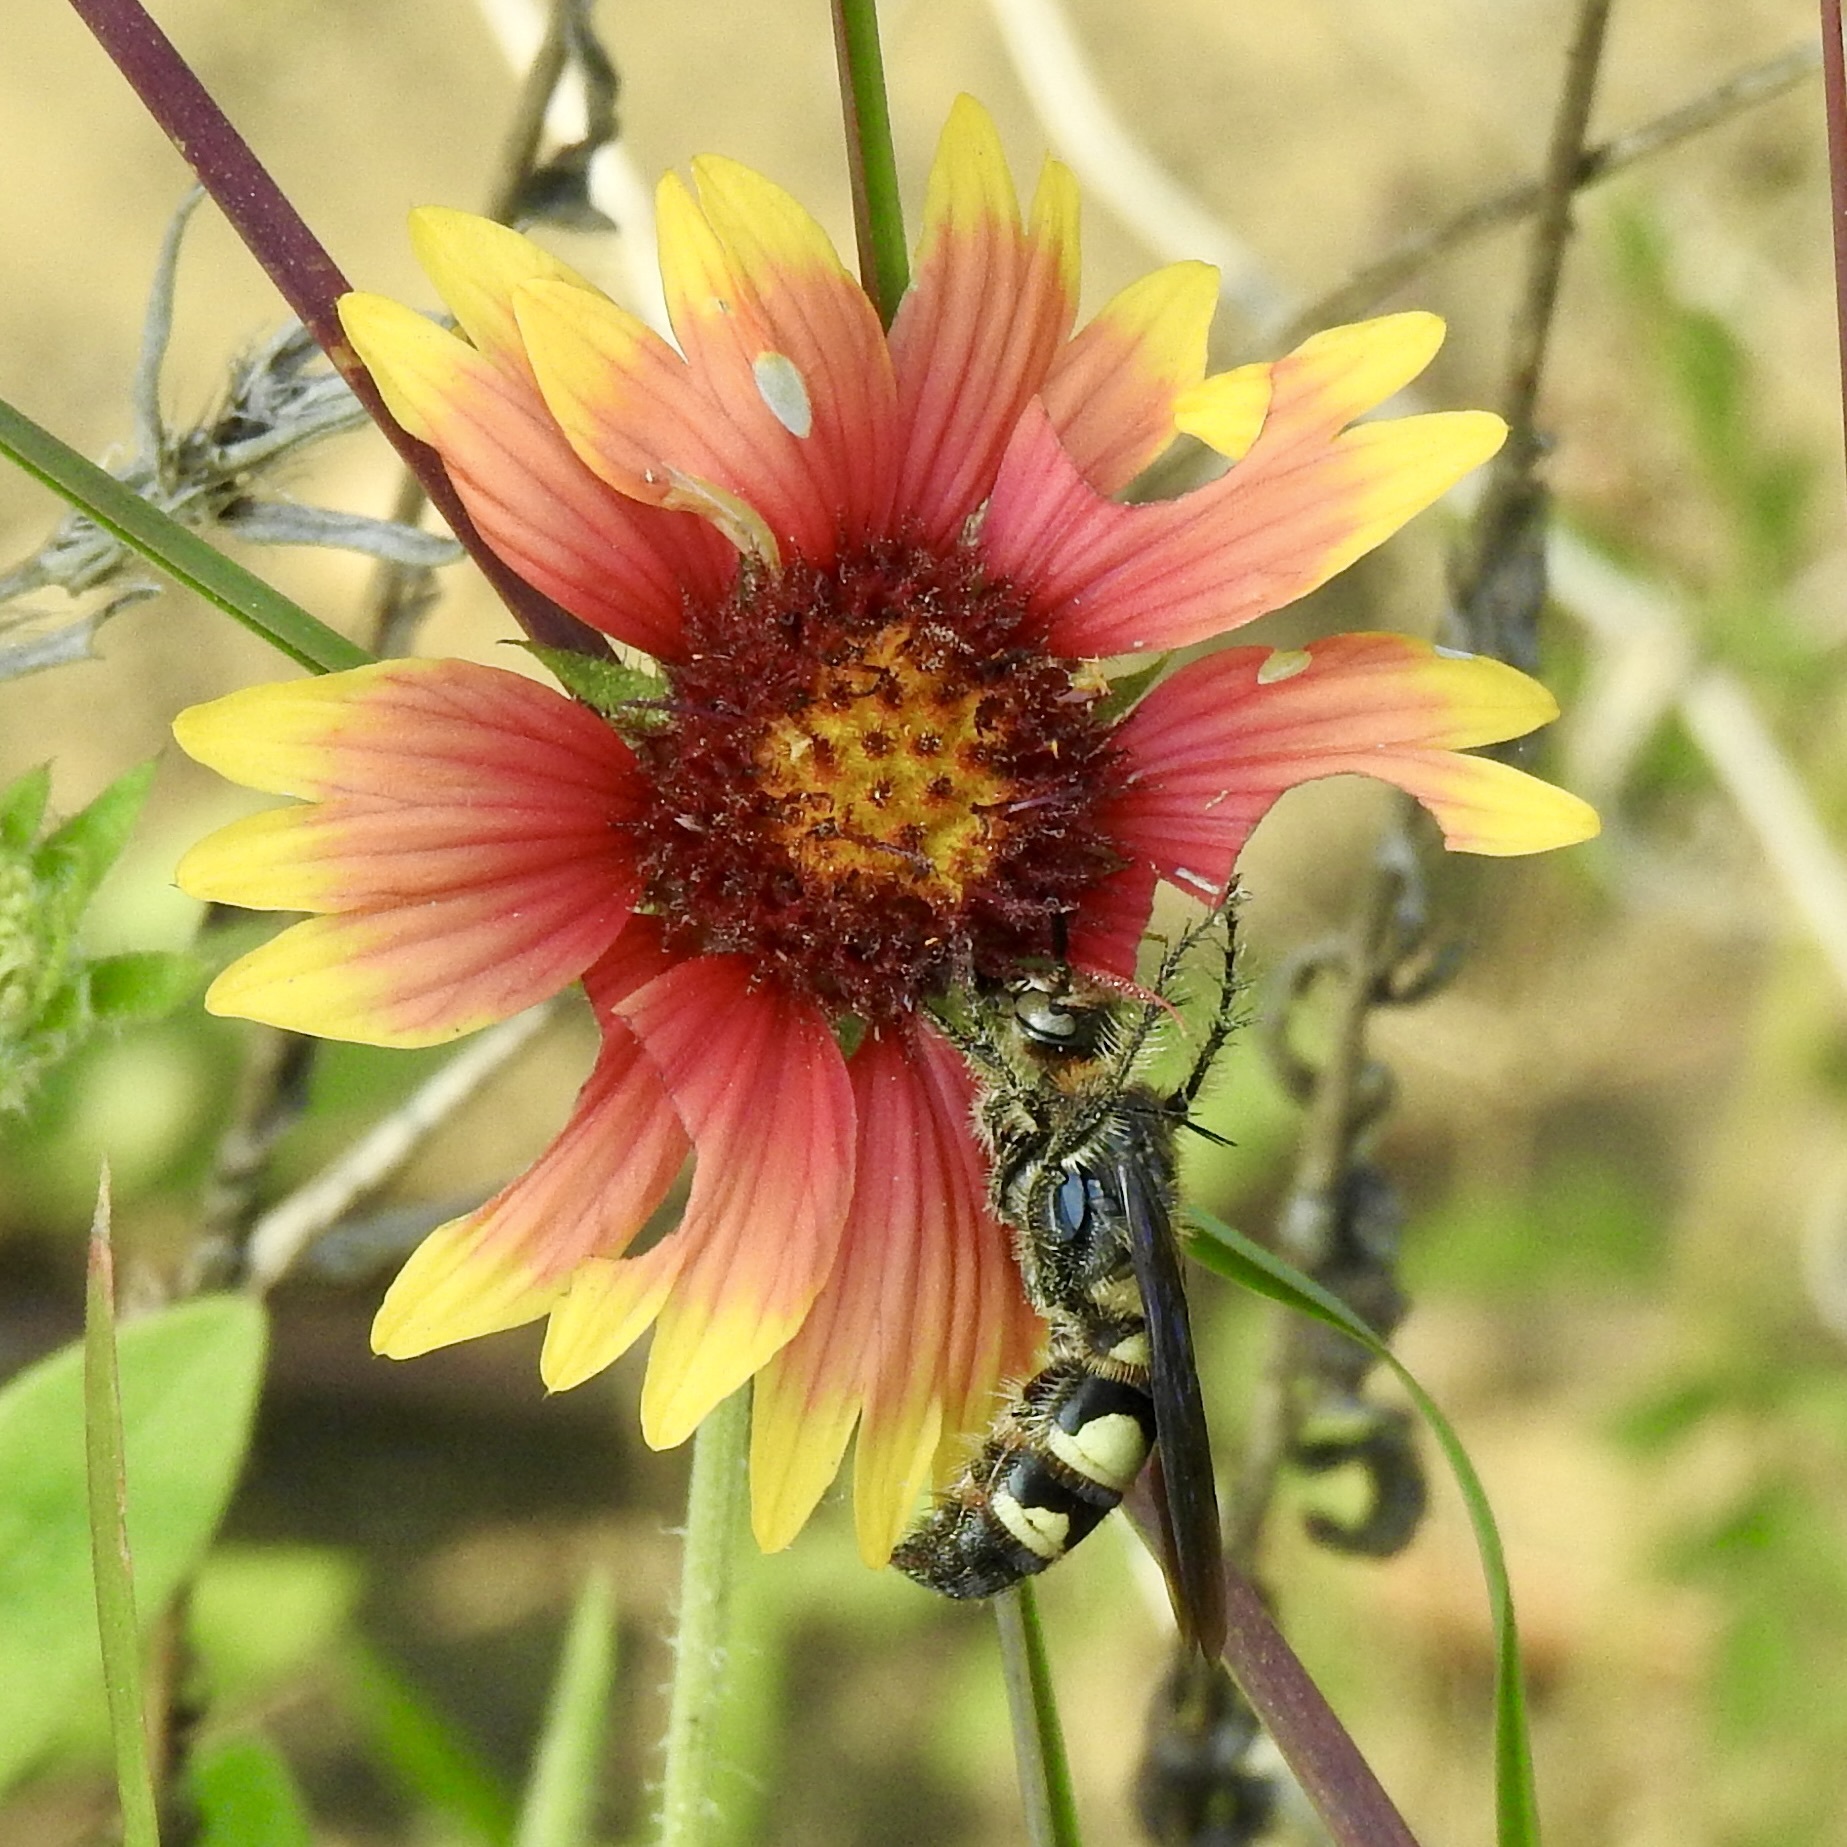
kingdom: Animalia
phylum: Arthropoda
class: Insecta
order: Hymenoptera
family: Scoliidae
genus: Dielis
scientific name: Dielis
